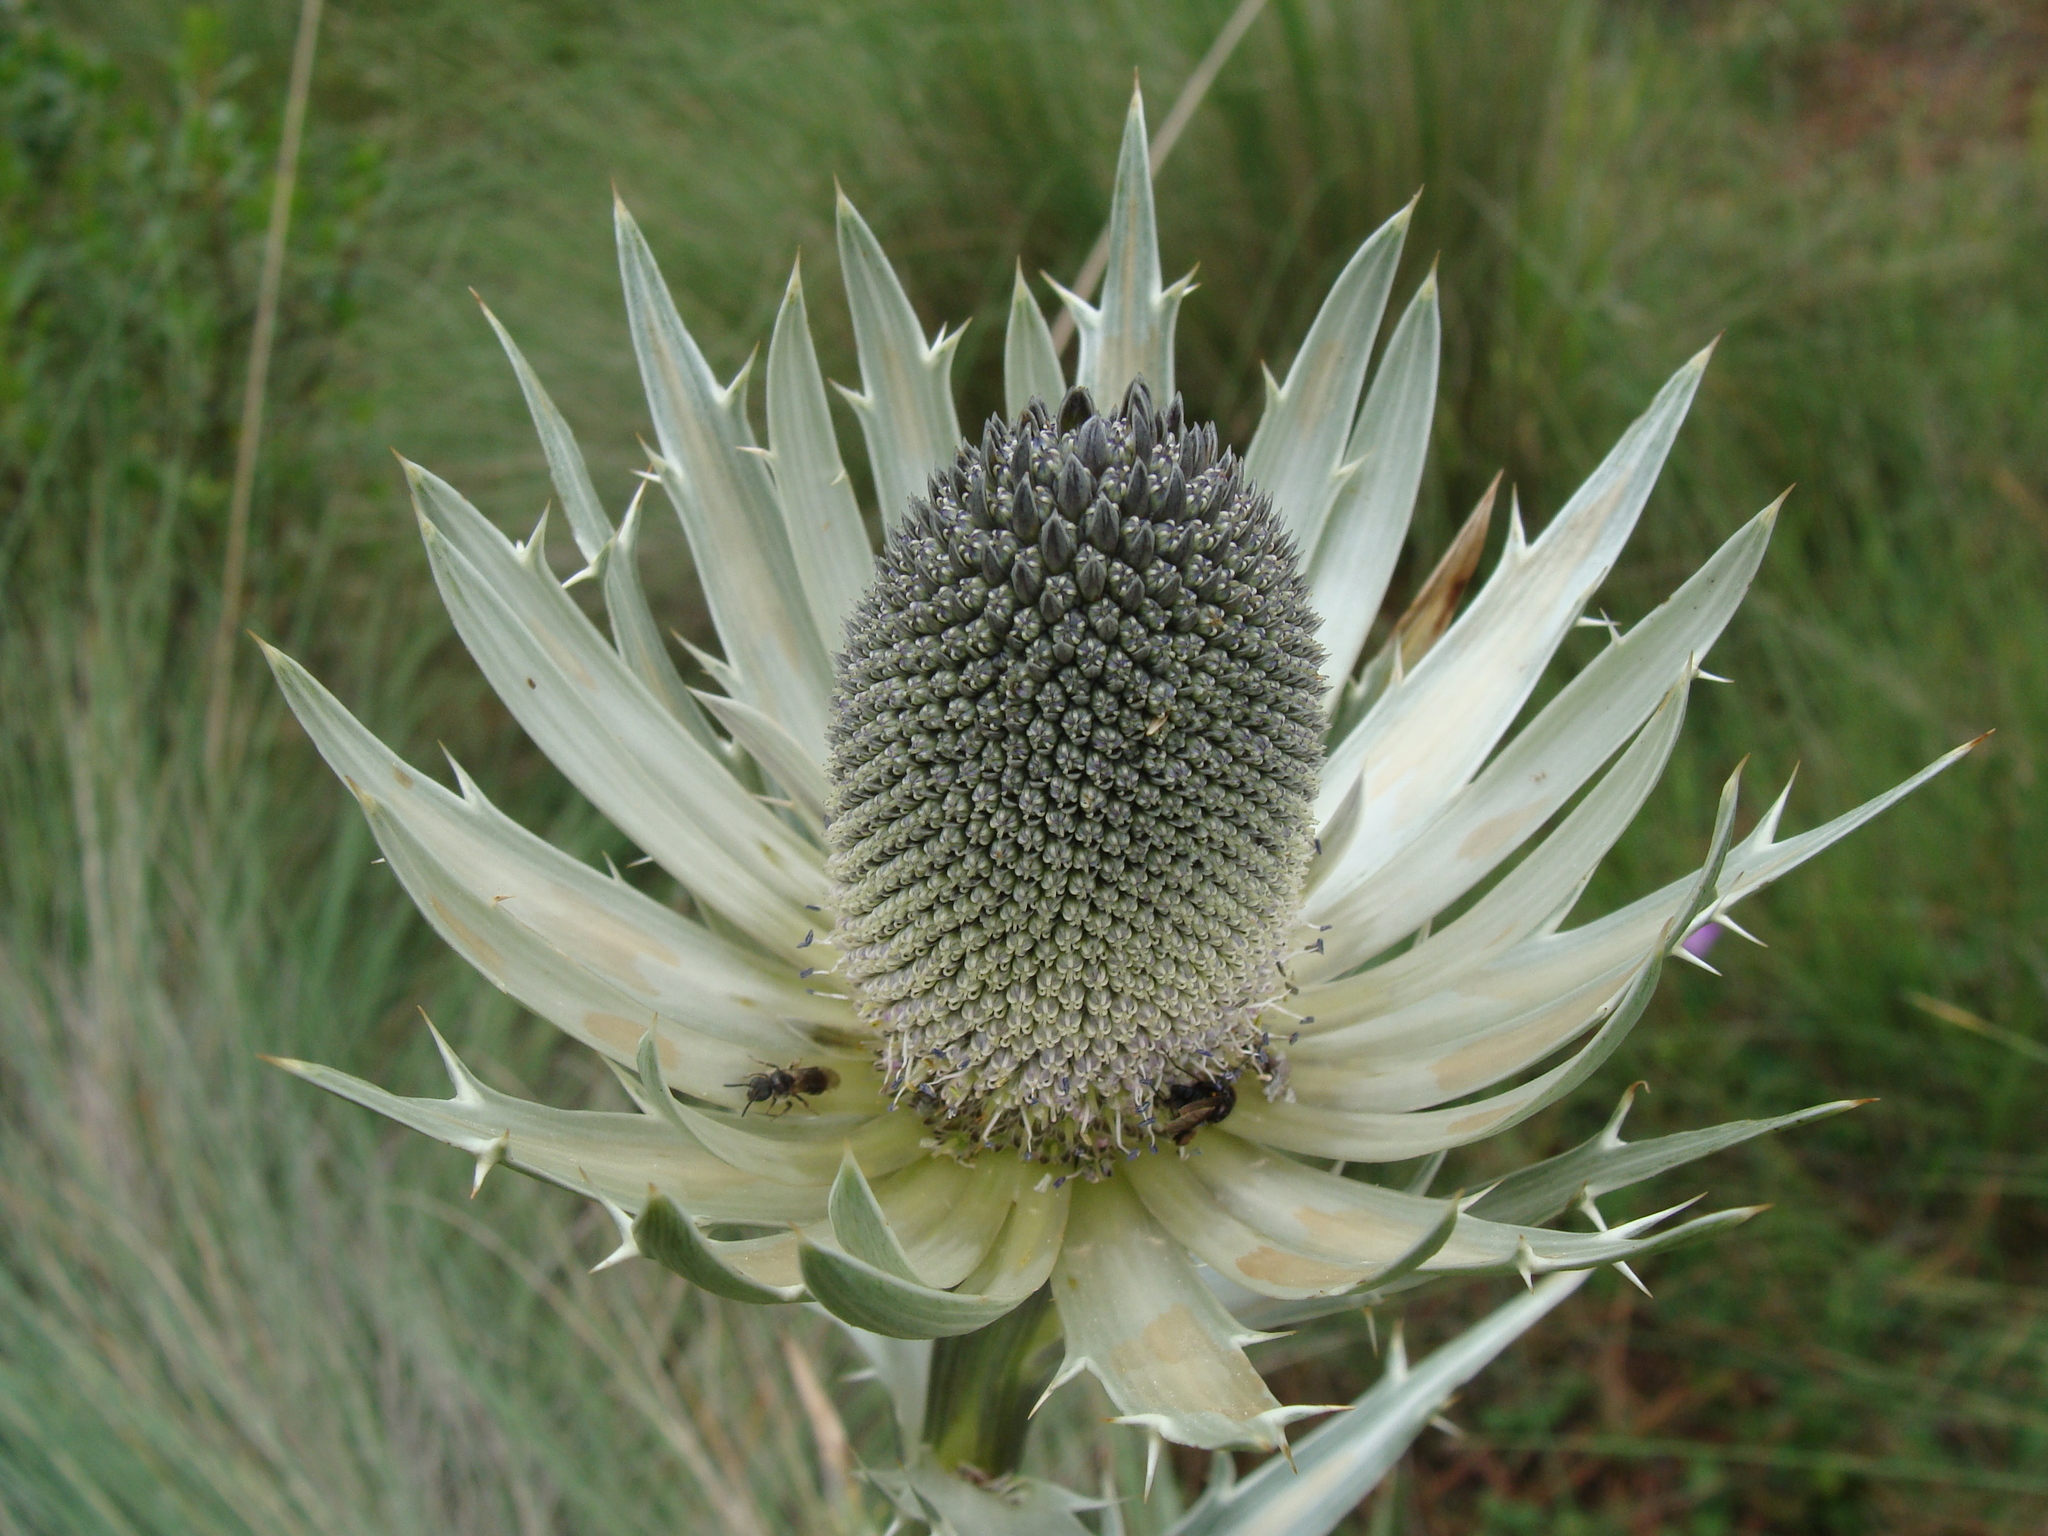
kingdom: Plantae
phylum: Tracheophyta
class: Magnoliopsida
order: Apiales
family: Apiaceae
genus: Eryngium
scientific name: Eryngium proteiflorum
